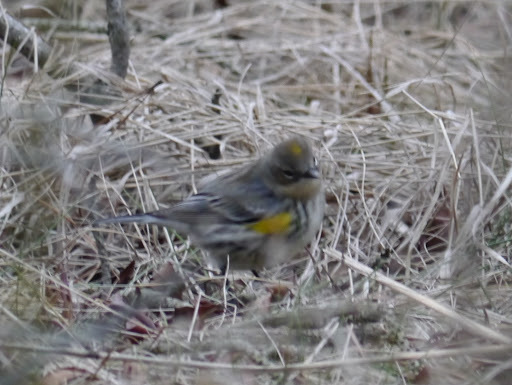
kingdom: Animalia
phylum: Chordata
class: Aves
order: Passeriformes
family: Parulidae
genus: Setophaga
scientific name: Setophaga coronata
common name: Myrtle warbler
